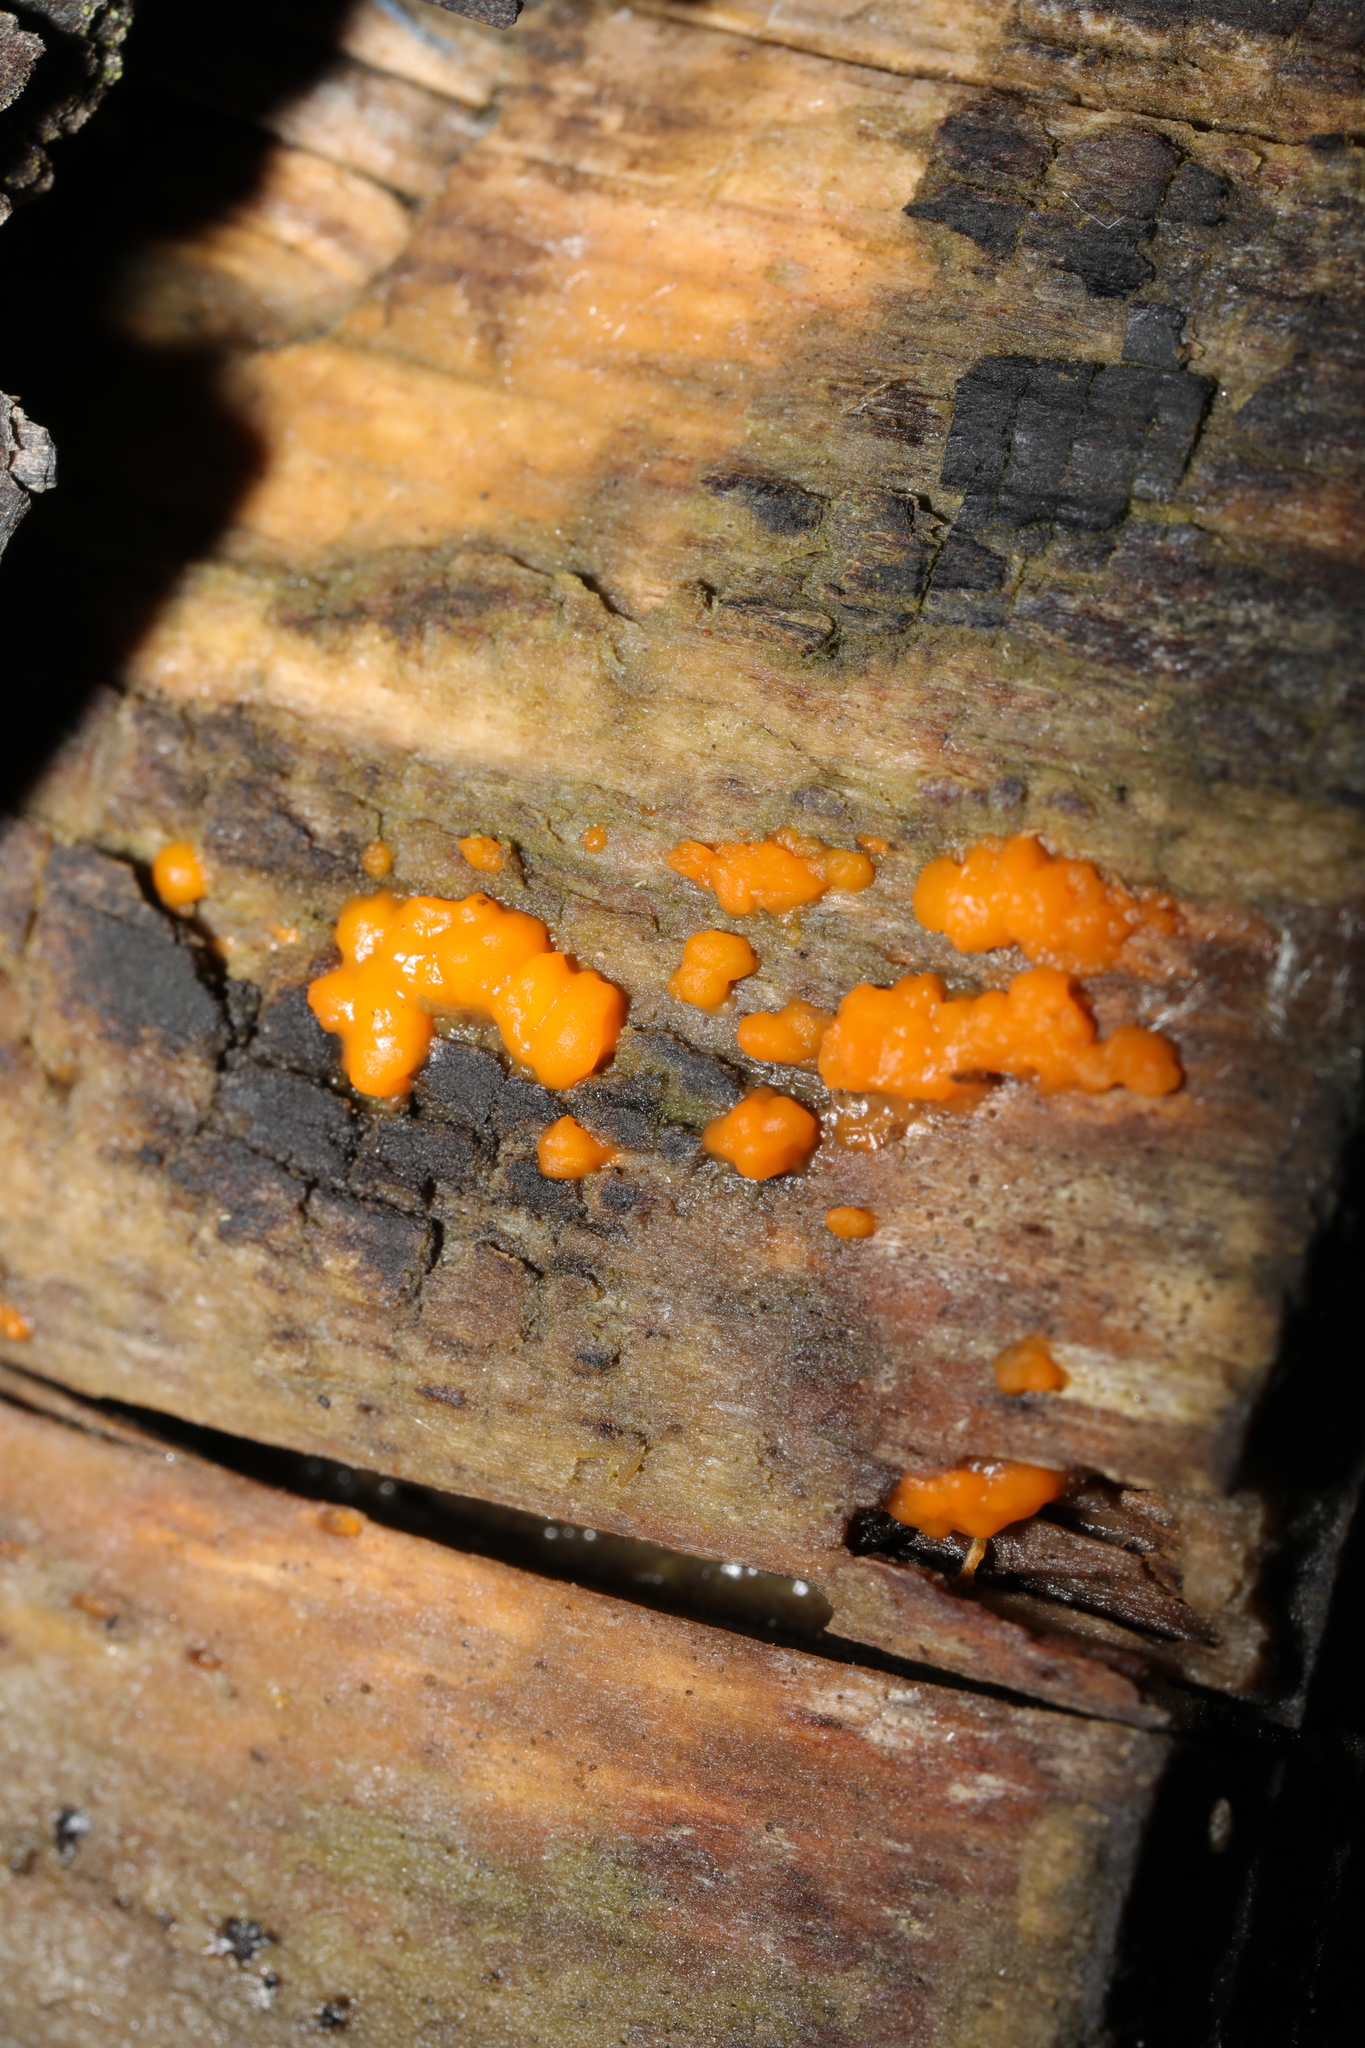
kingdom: Fungi
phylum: Basidiomycota
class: Dacrymycetes
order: Dacrymycetales
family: Dacrymycetaceae
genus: Dacrymyces
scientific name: Dacrymyces stillatus
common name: Common jelly spot
